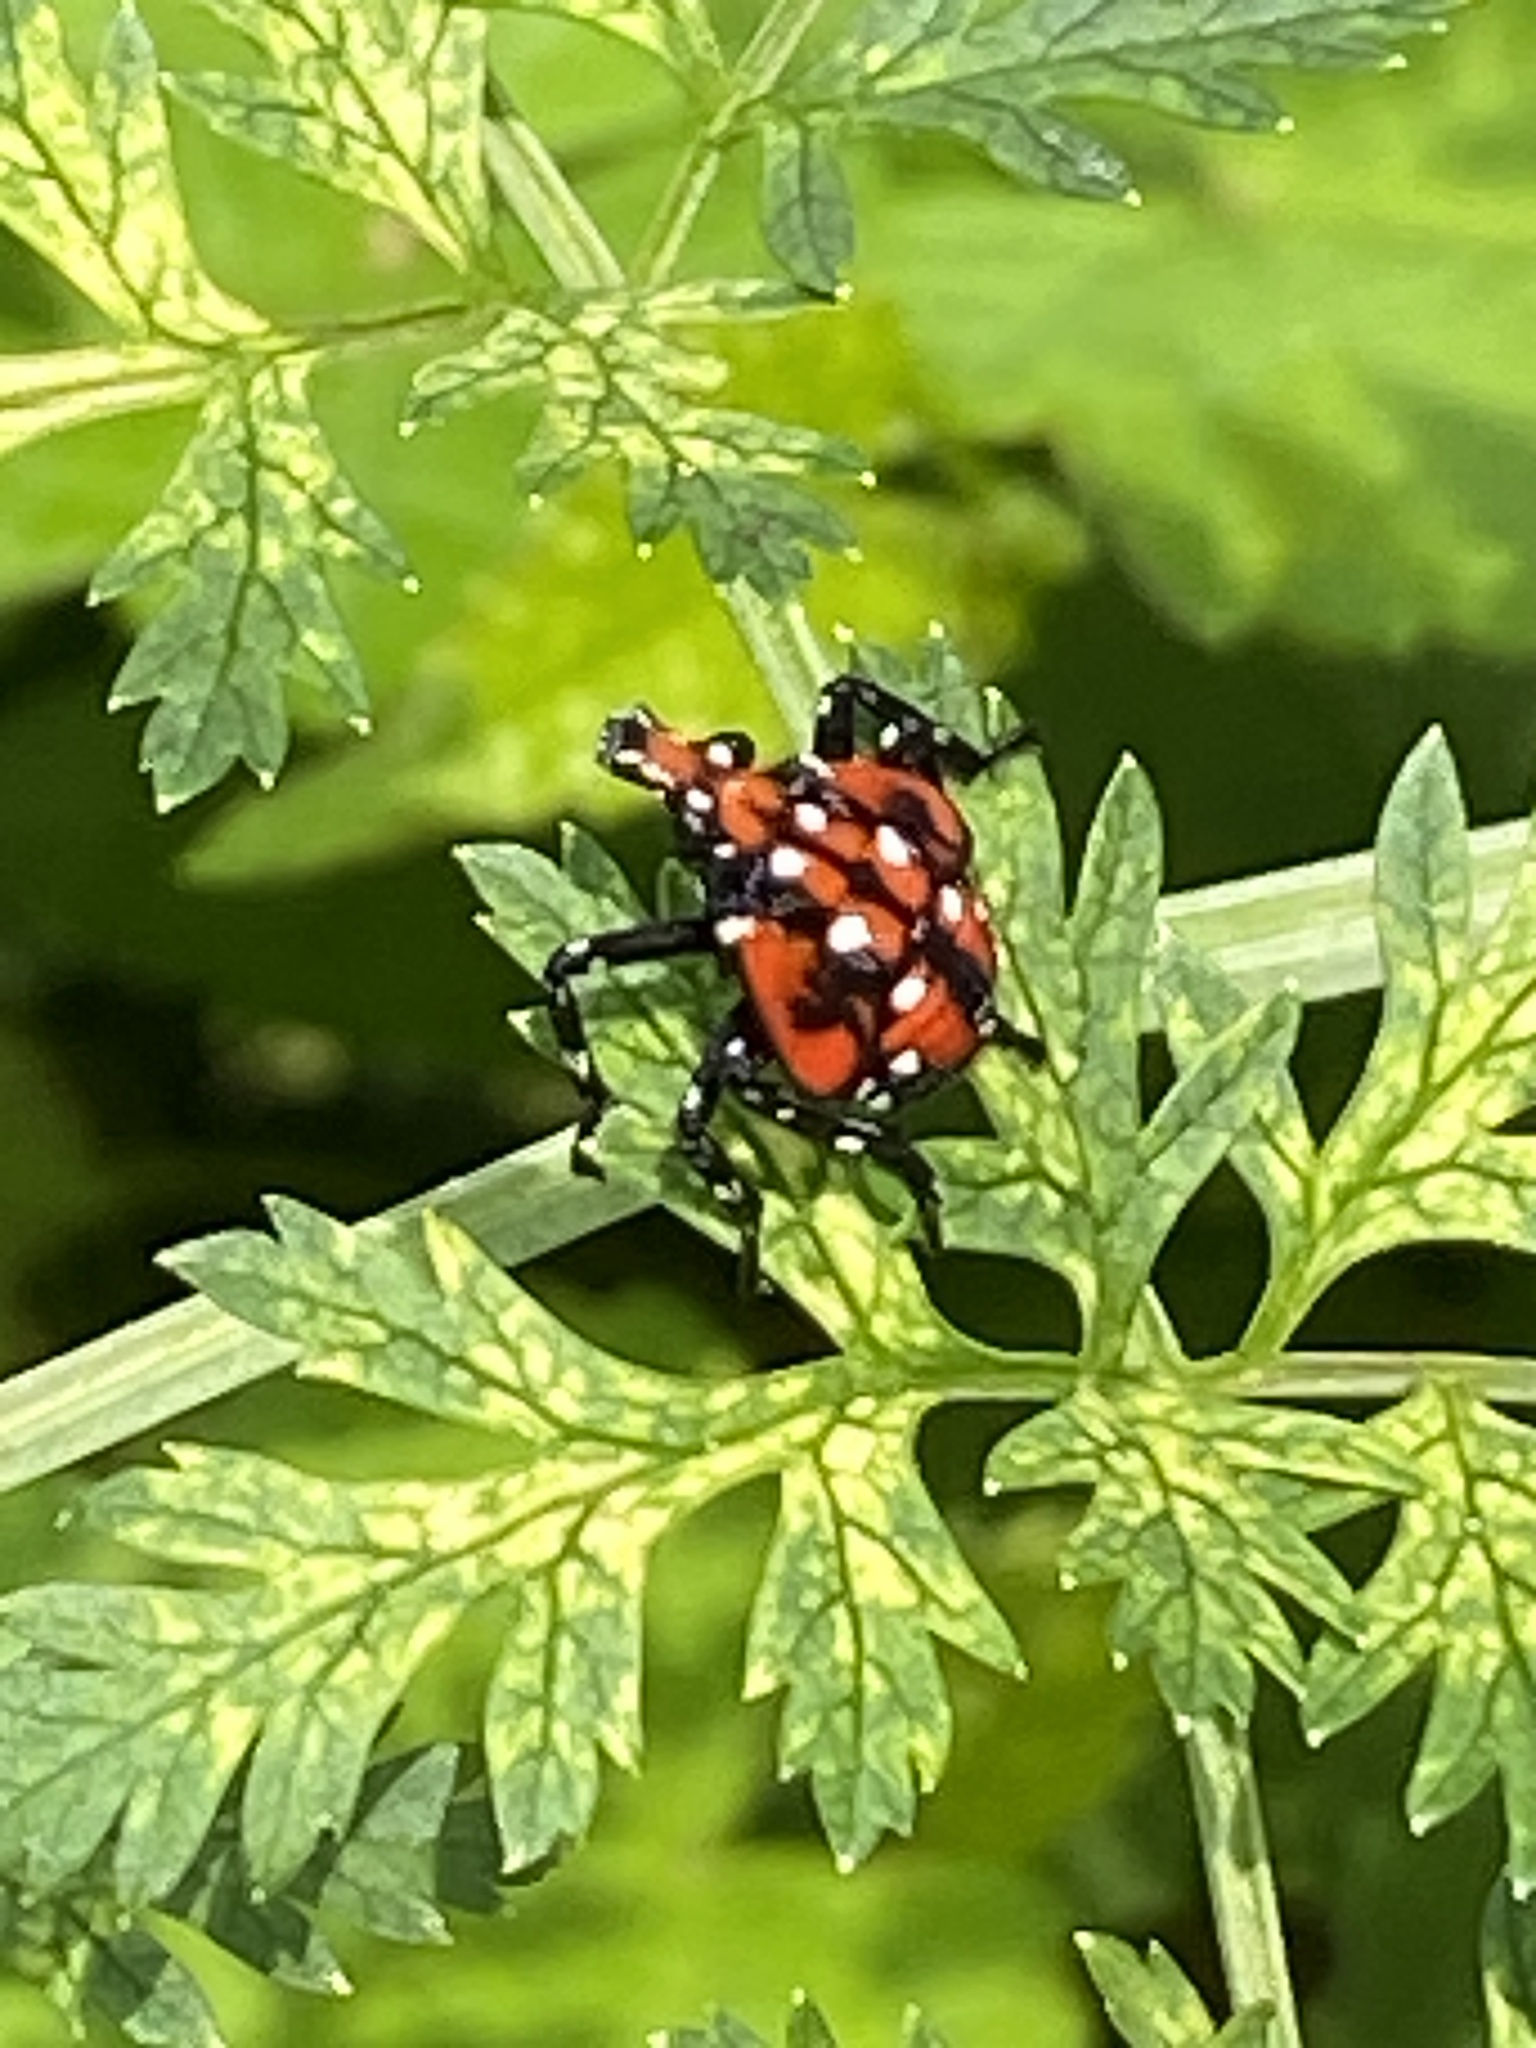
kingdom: Animalia
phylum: Arthropoda
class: Insecta
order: Hemiptera
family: Fulgoridae
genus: Lycorma
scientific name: Lycorma delicatula
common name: Spotted lanternfly
